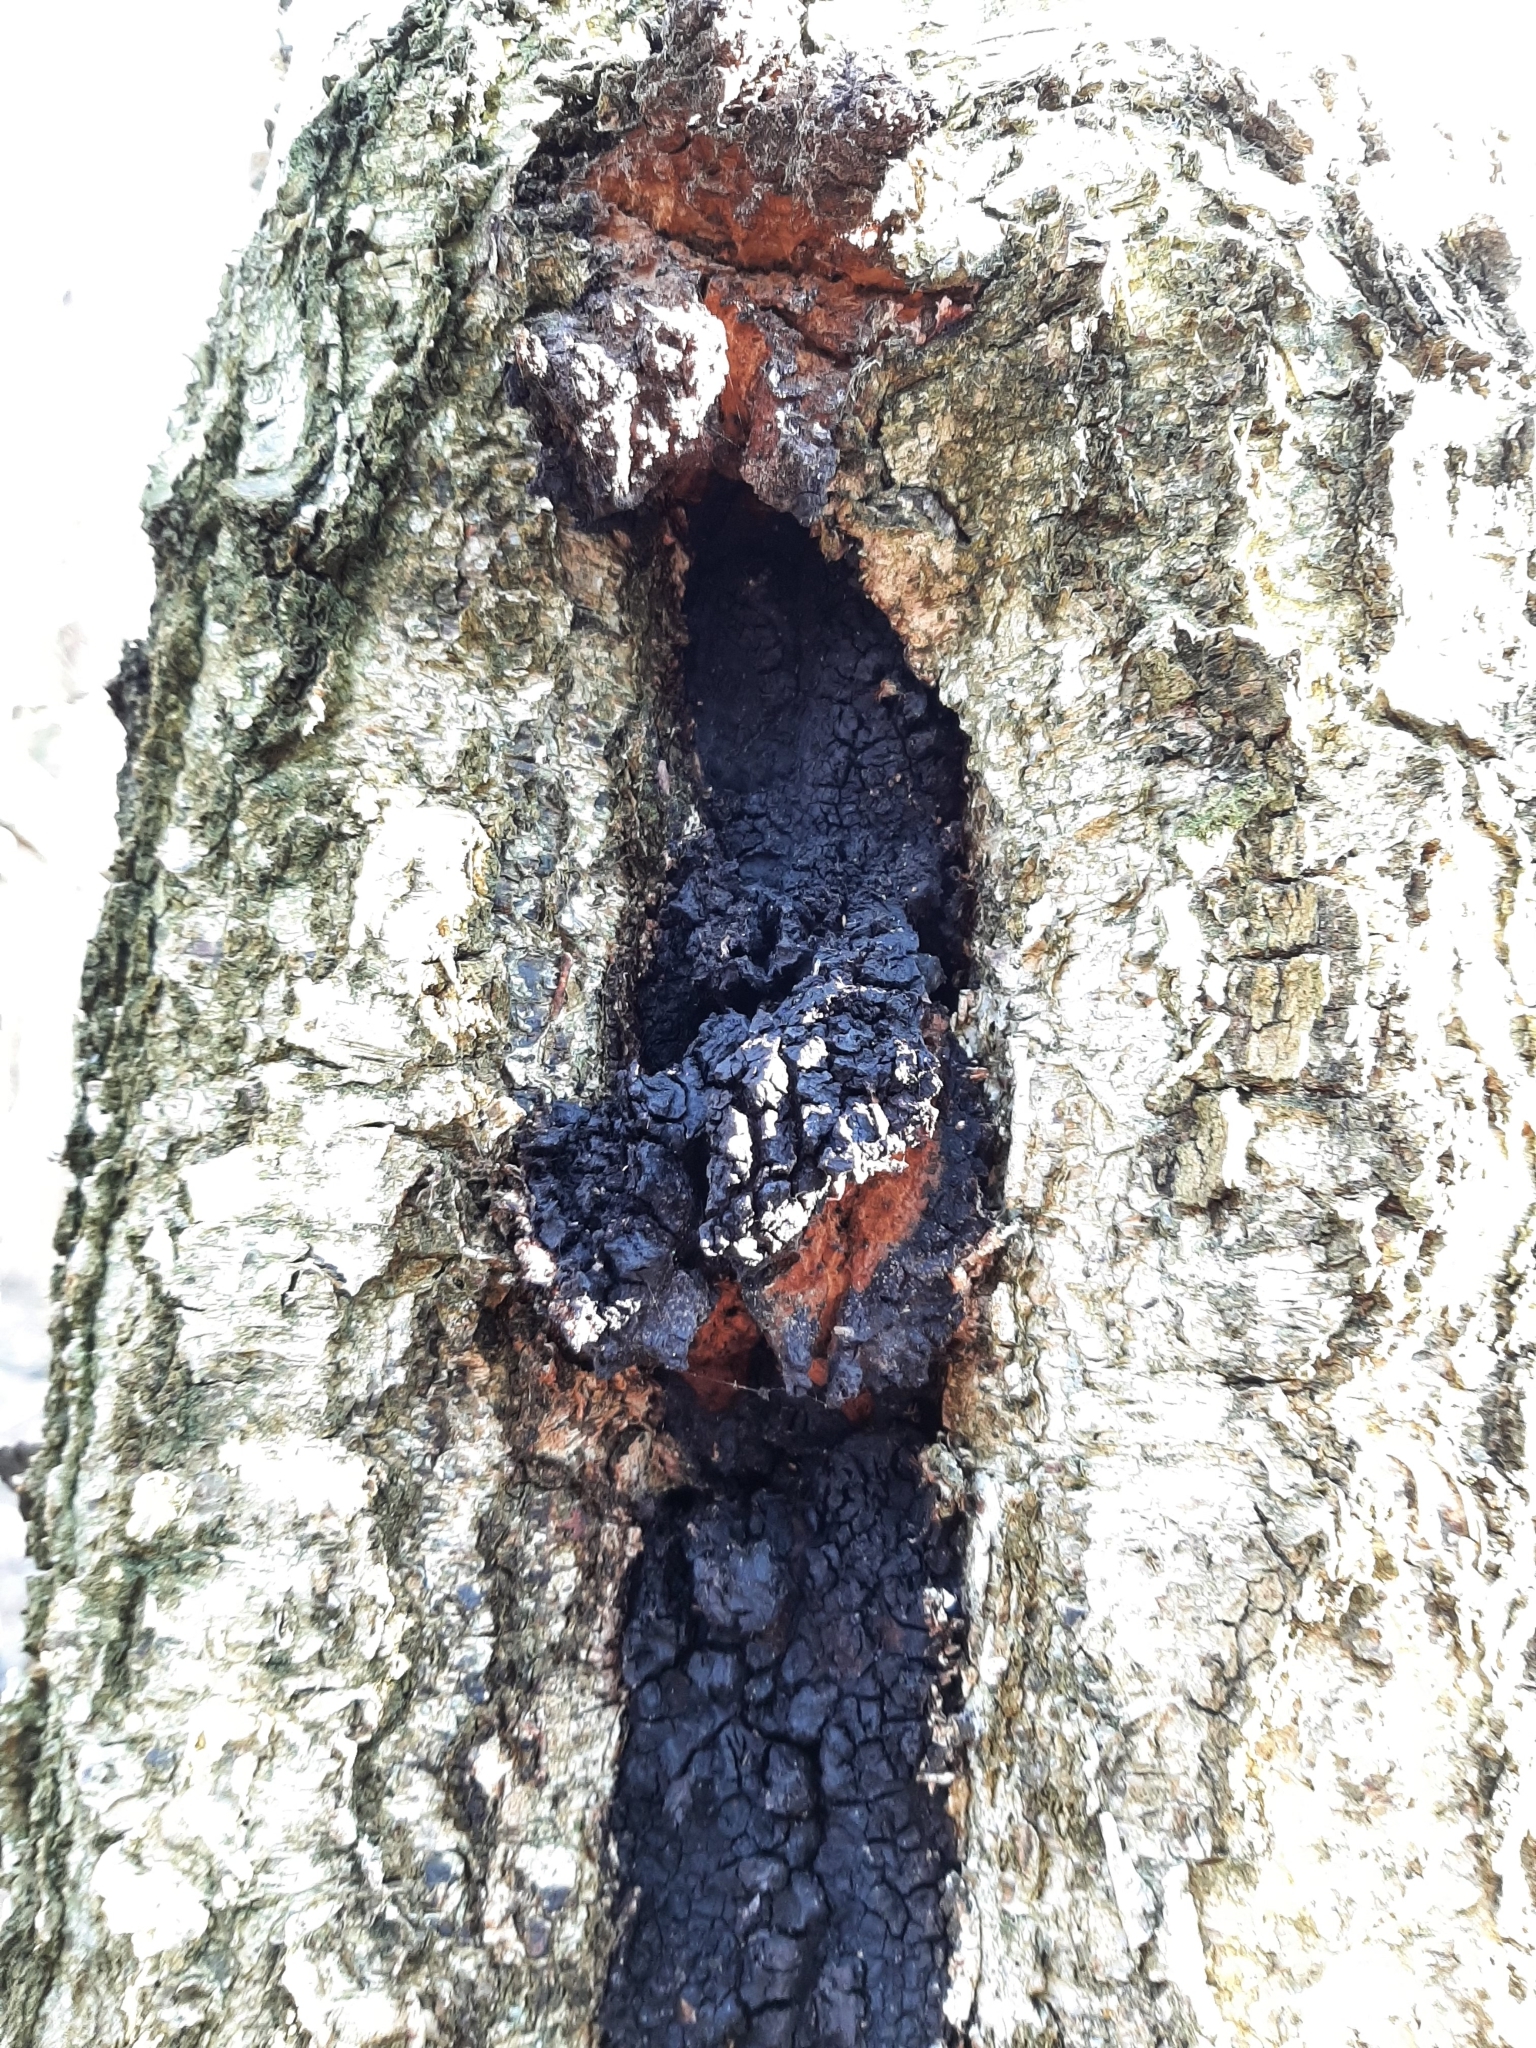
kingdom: Fungi
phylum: Basidiomycota
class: Agaricomycetes
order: Hymenochaetales
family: Hymenochaetaceae
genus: Inonotus
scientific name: Inonotus obliquus
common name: Chaga
